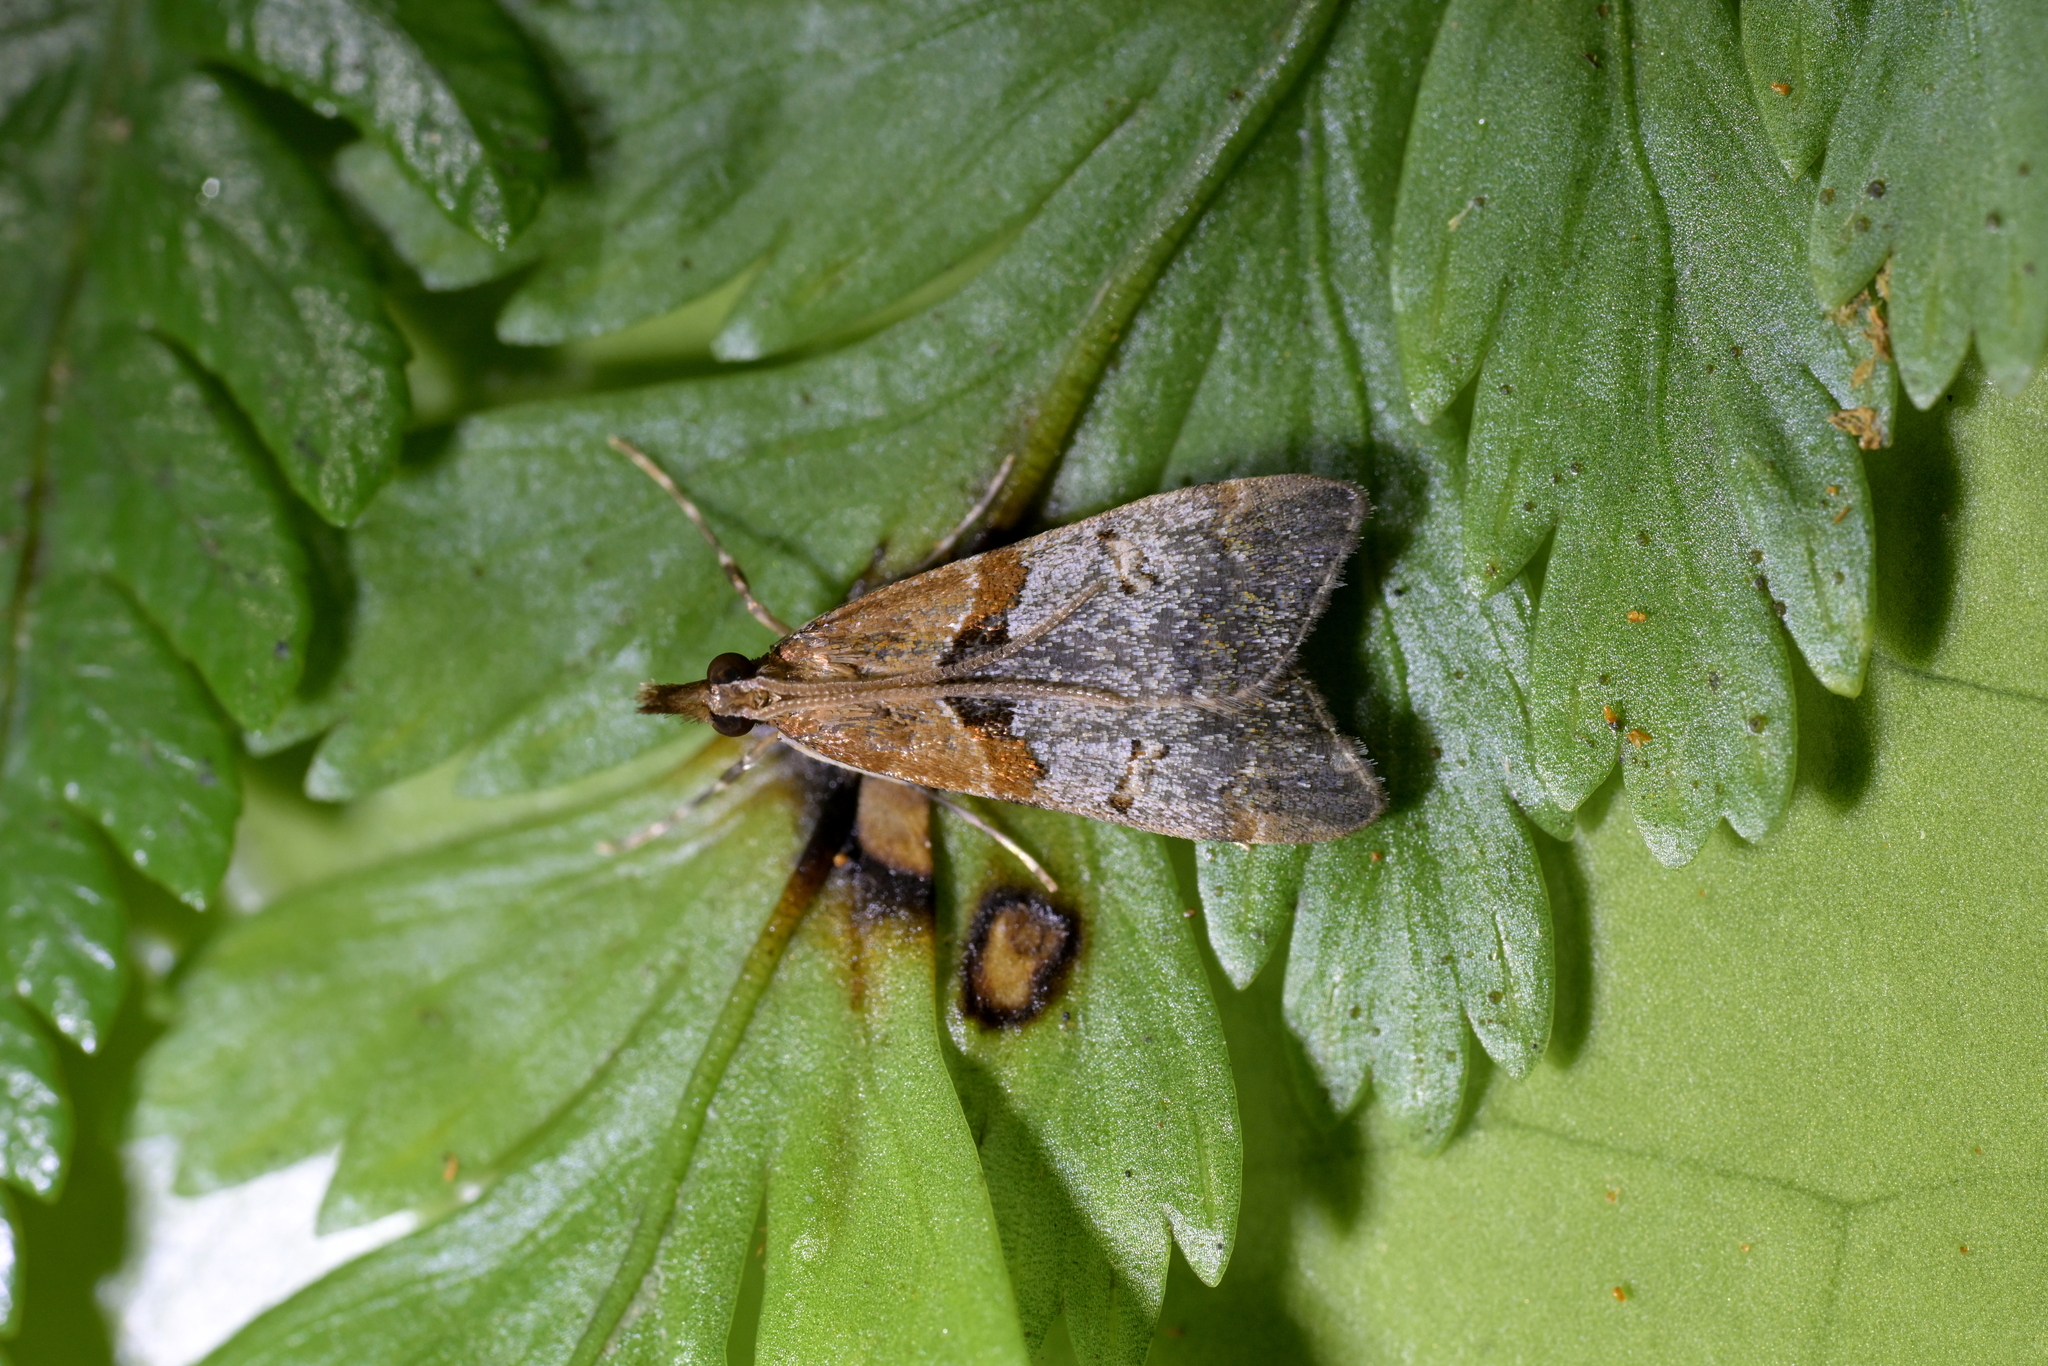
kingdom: Animalia
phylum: Arthropoda
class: Insecta
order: Lepidoptera
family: Crambidae
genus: Antiscopa
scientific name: Antiscopa epicomia
